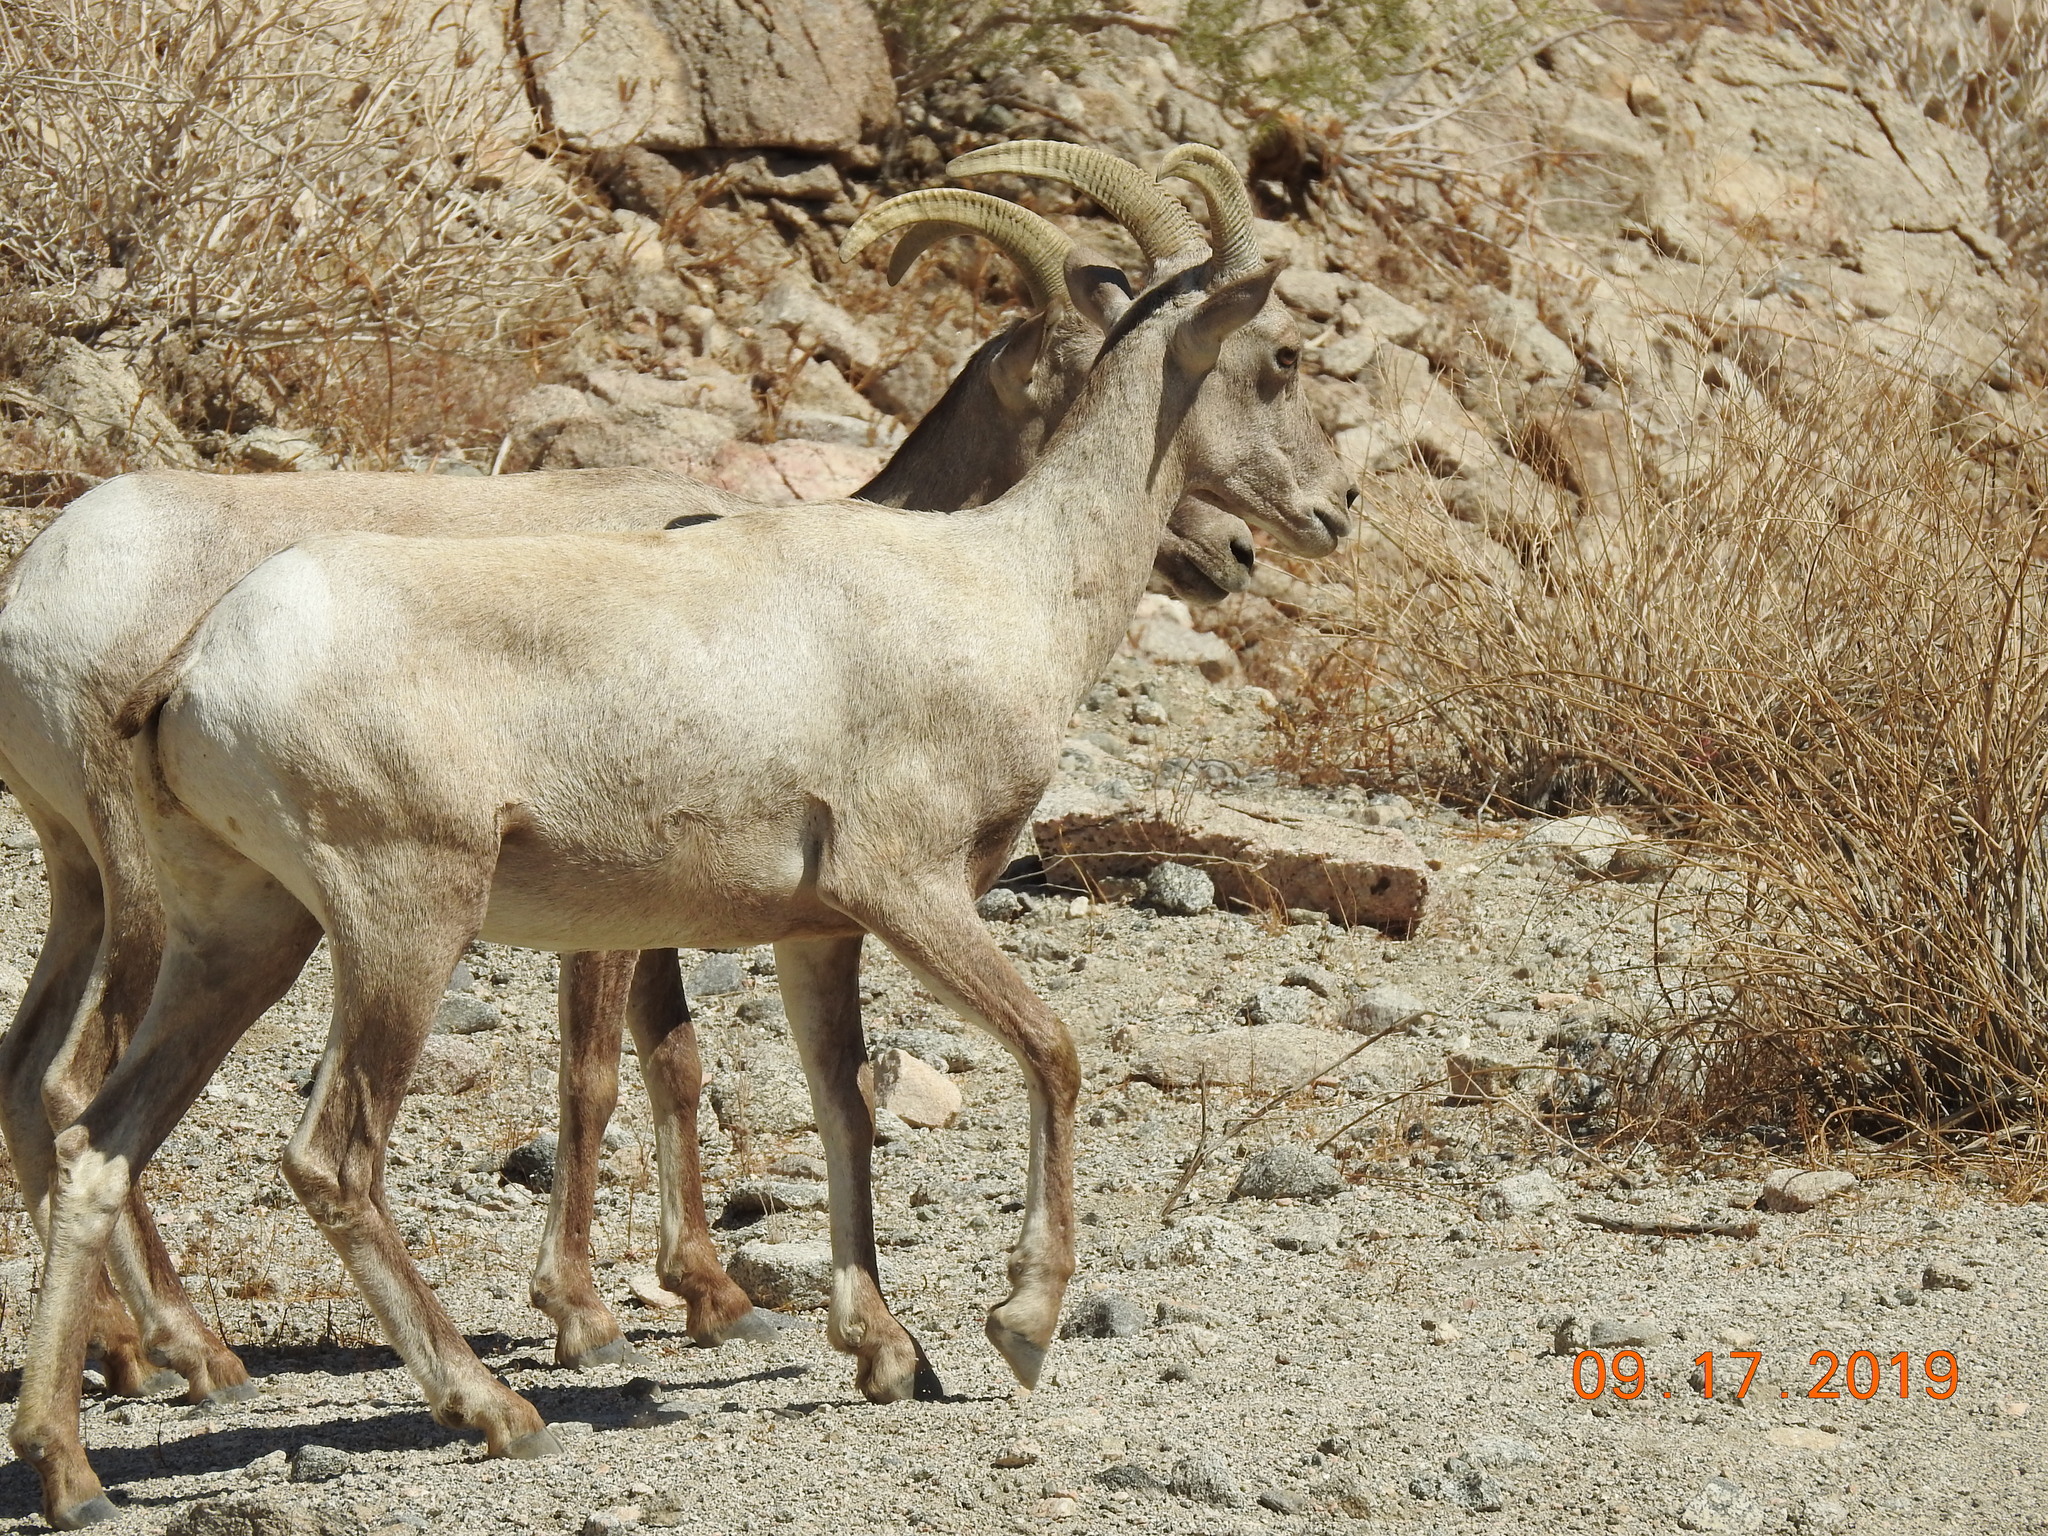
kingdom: Animalia
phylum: Chordata
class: Mammalia
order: Artiodactyla
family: Bovidae
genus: Ovis
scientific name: Ovis canadensis
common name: Bighorn sheep
